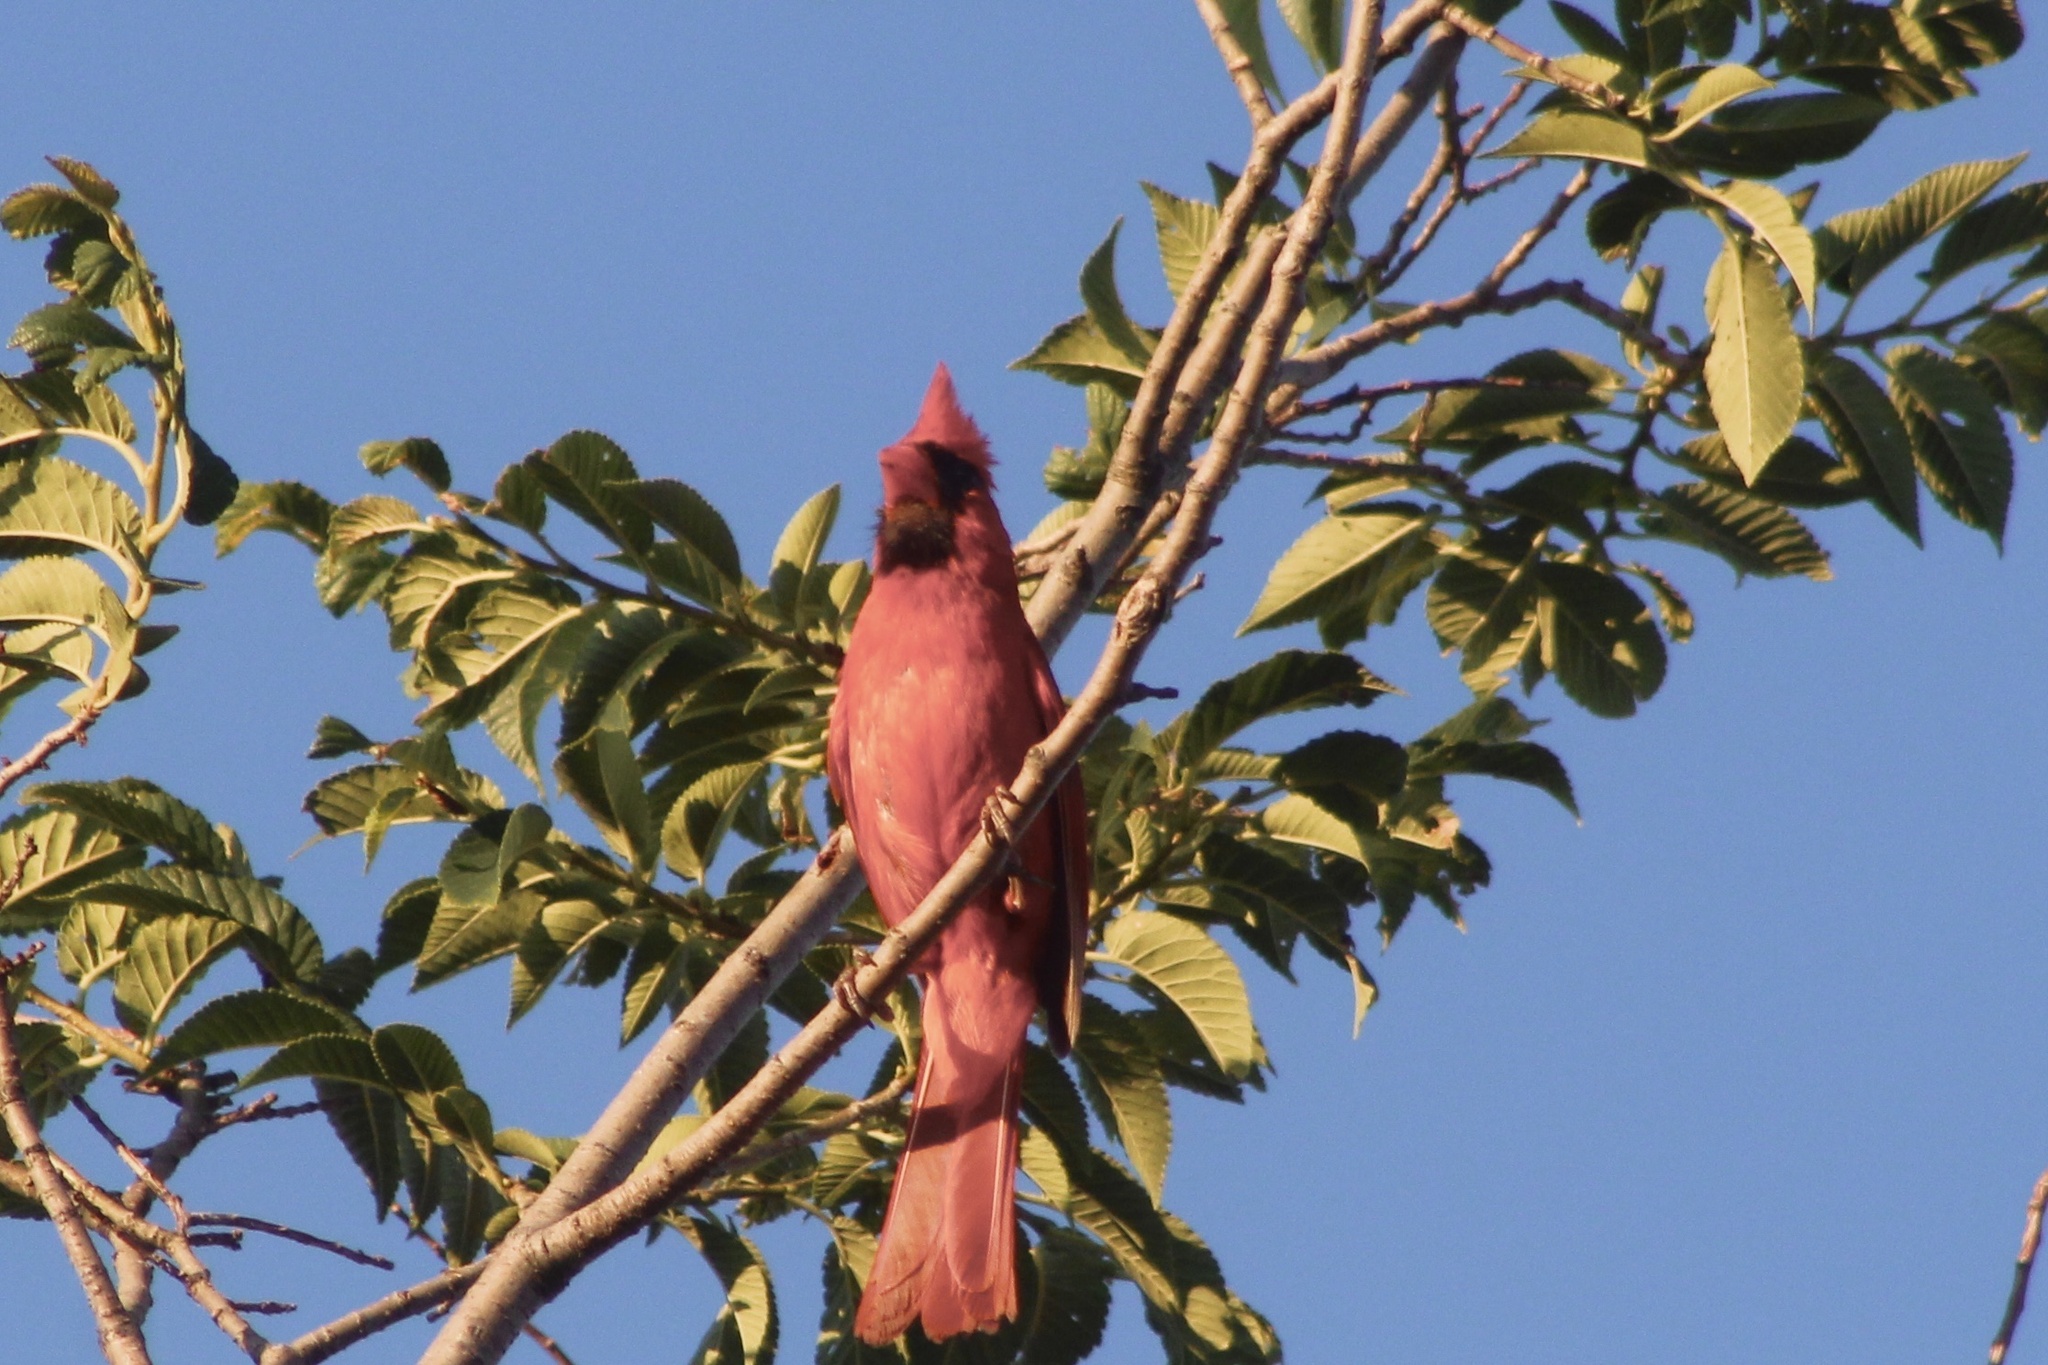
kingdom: Animalia
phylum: Chordata
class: Aves
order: Passeriformes
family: Cardinalidae
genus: Cardinalis
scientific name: Cardinalis cardinalis
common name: Northern cardinal
